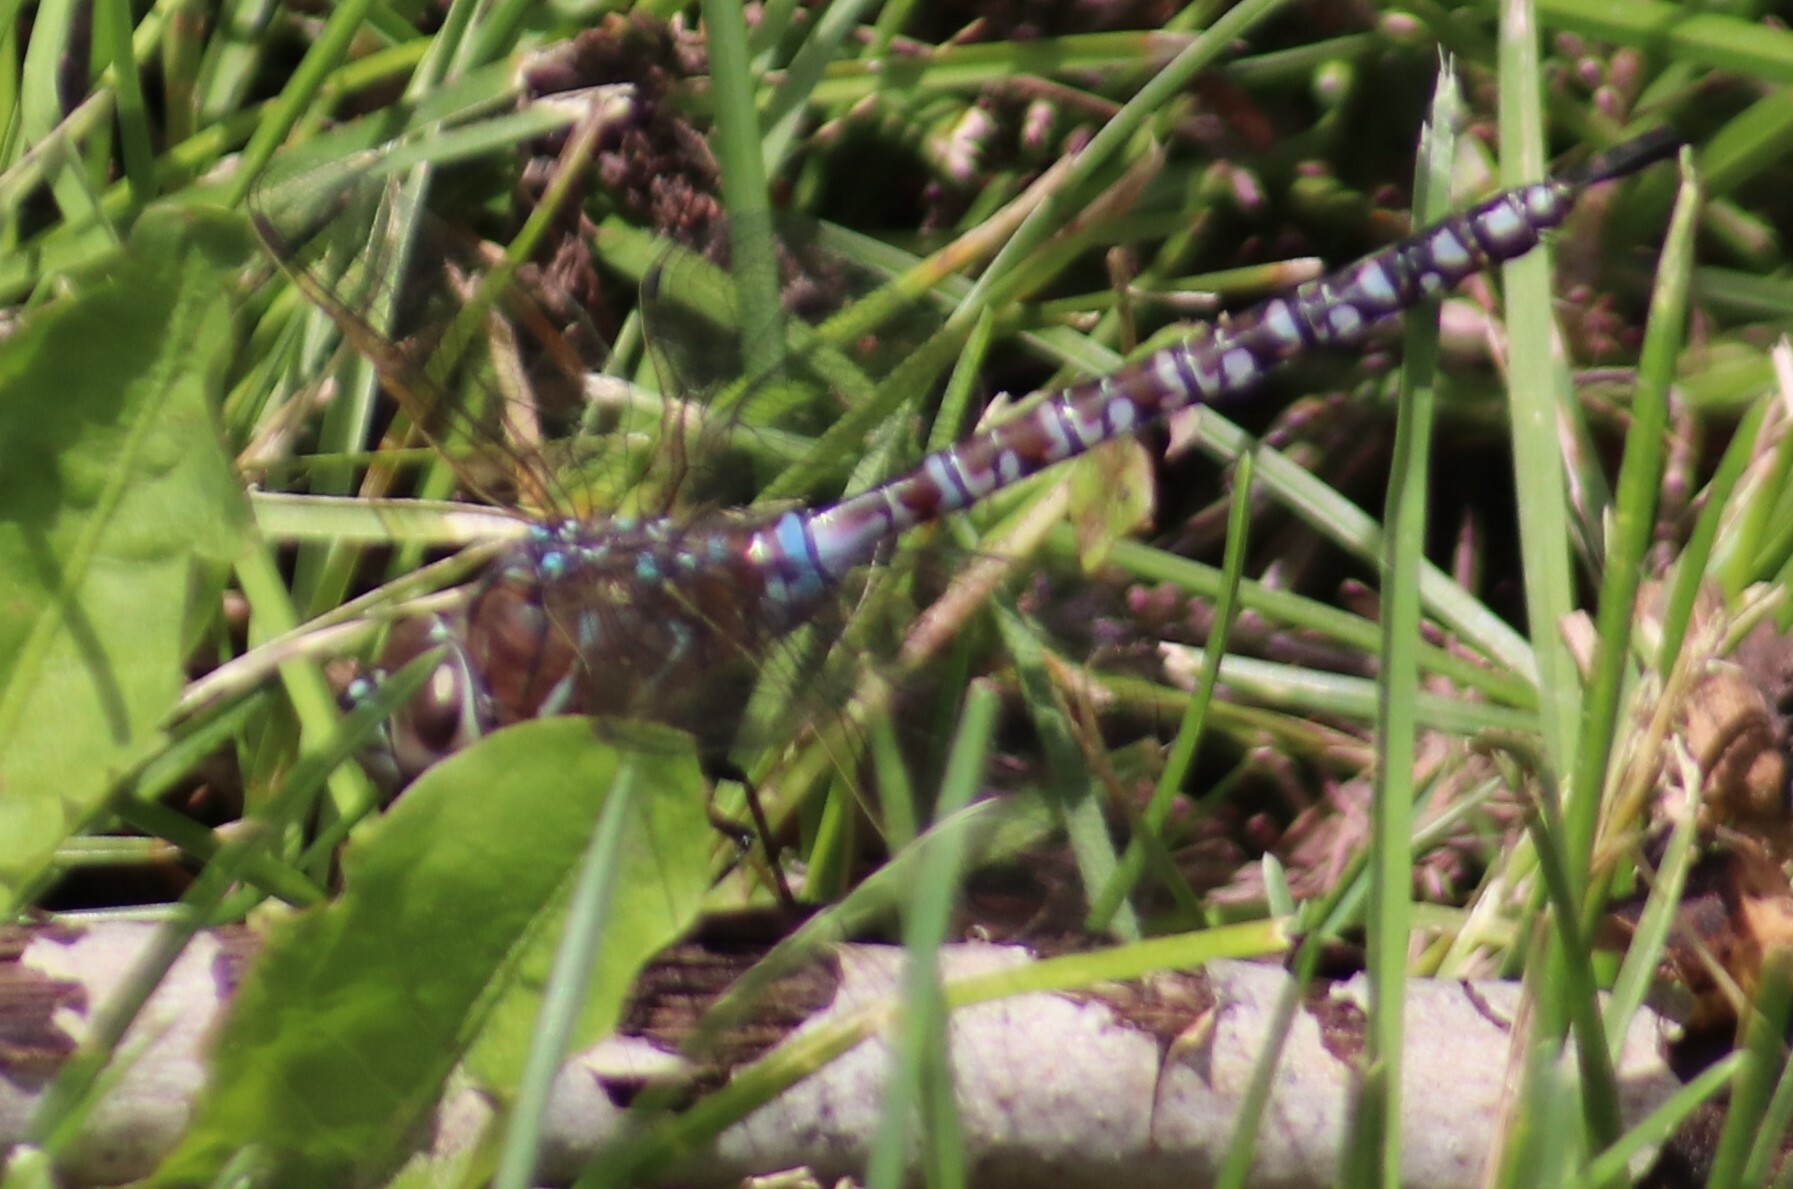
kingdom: Animalia
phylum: Arthropoda
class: Insecta
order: Odonata
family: Aeshnidae
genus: Aeshna
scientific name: Aeshna interrupta
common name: Variable darner
